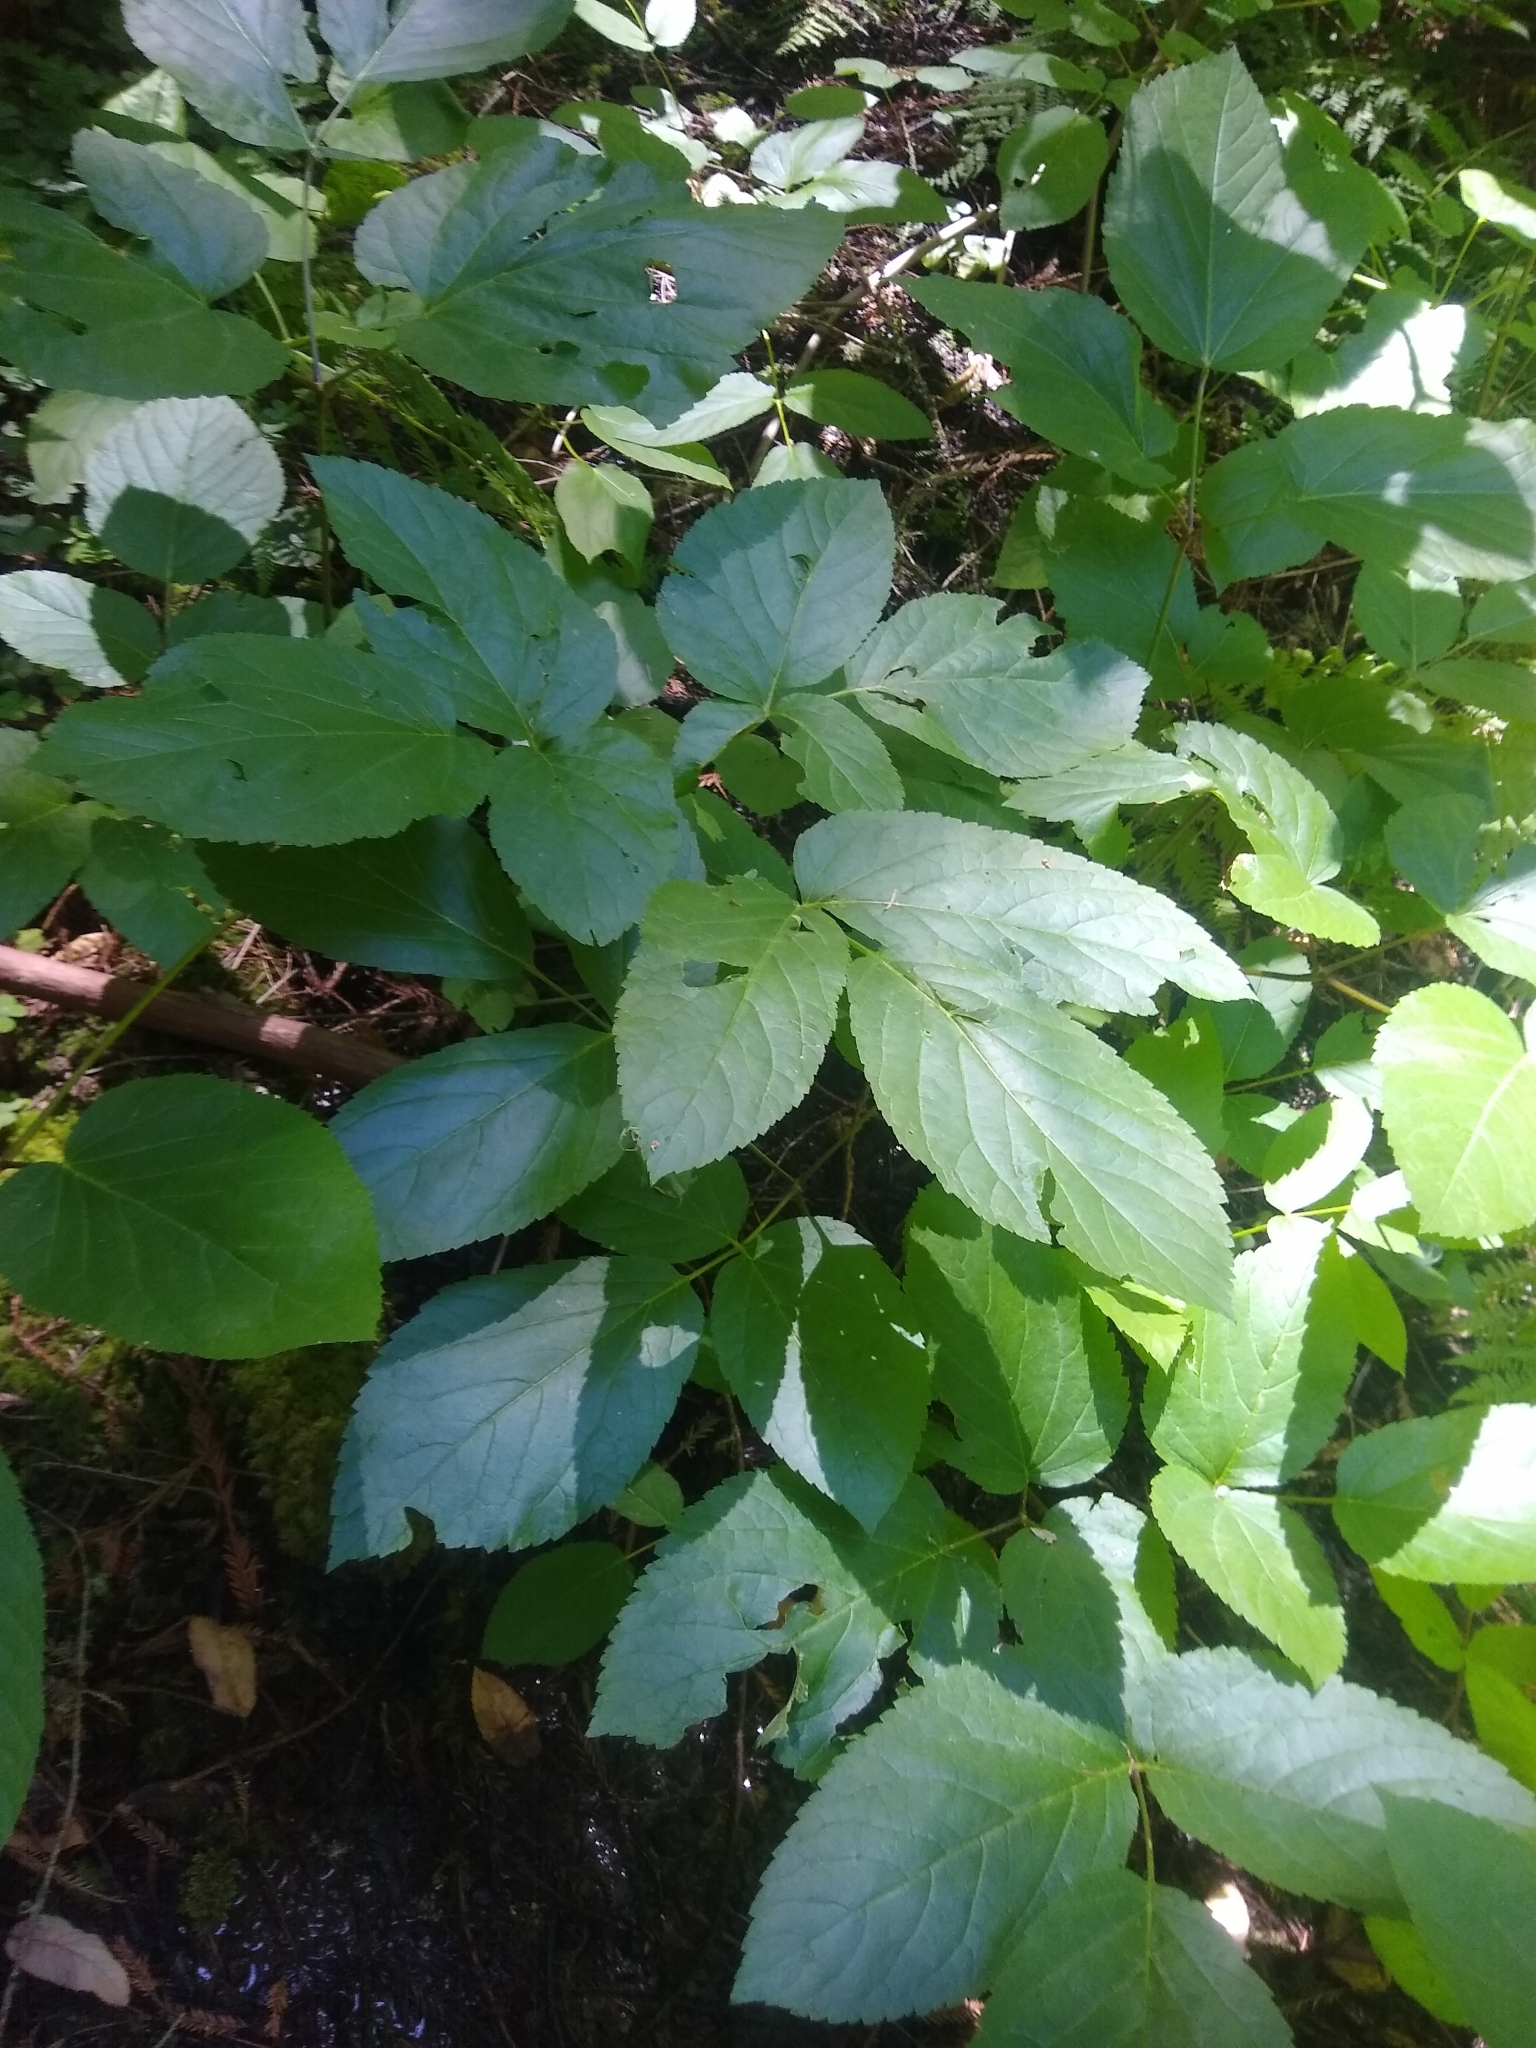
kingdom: Plantae
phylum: Tracheophyta
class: Magnoliopsida
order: Apiales
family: Araliaceae
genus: Aralia
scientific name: Aralia californica
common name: California-ginseng
